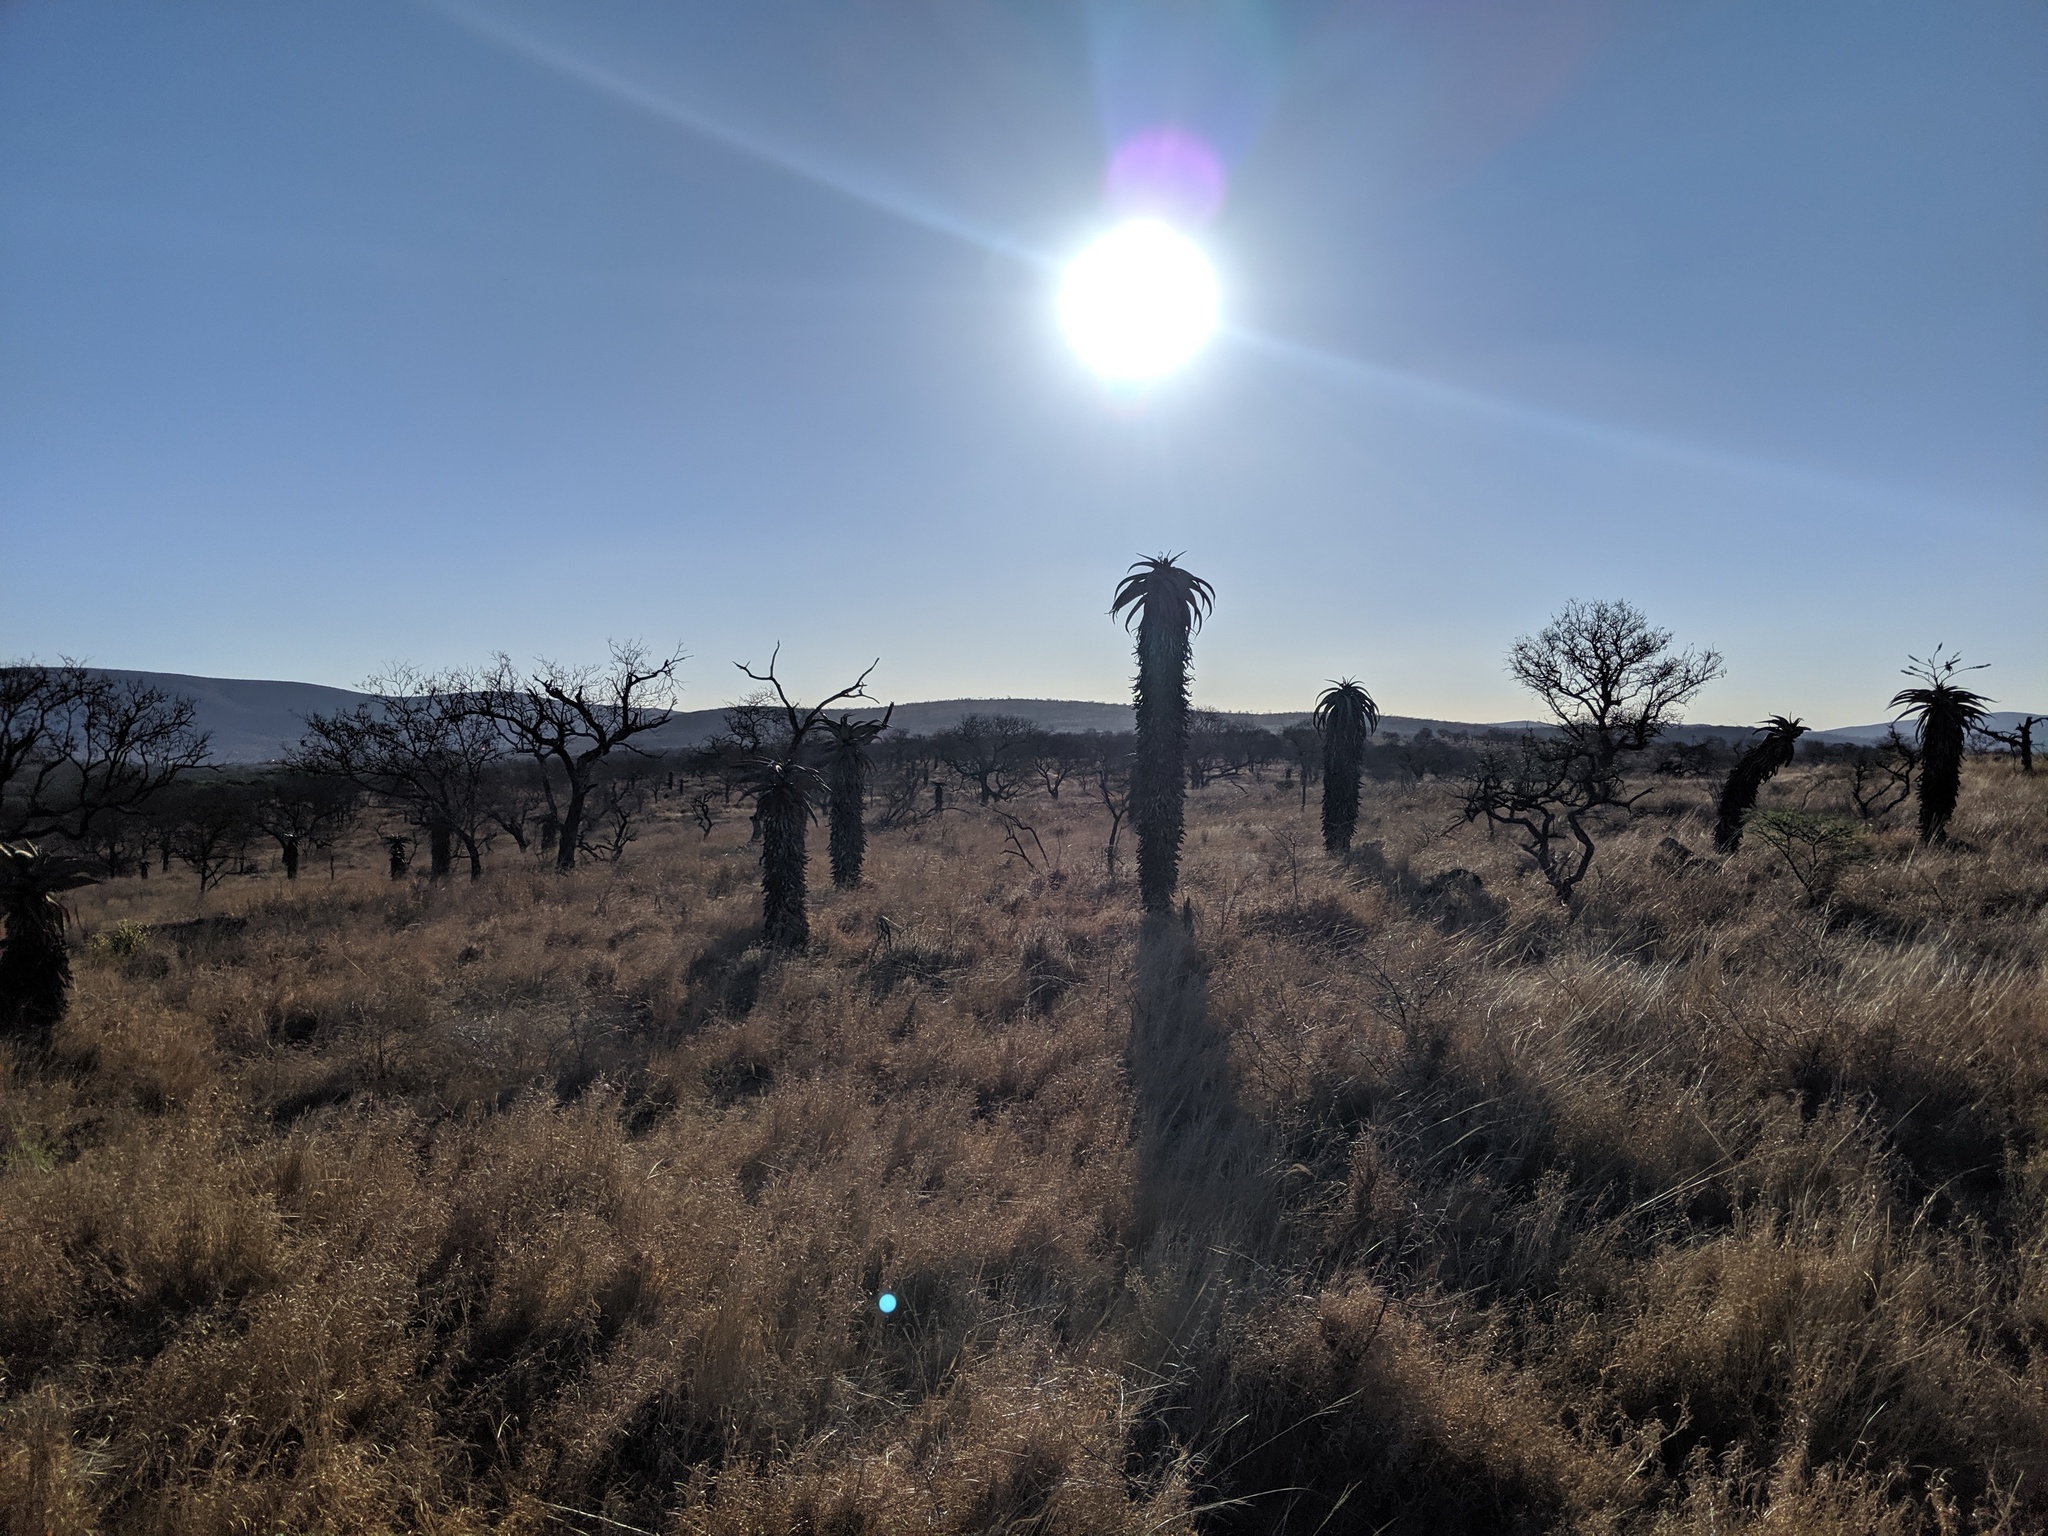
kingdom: Plantae
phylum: Tracheophyta
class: Liliopsida
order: Asparagales
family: Asphodelaceae
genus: Aloe
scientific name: Aloe marlothii
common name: Flat-flowered aloe
